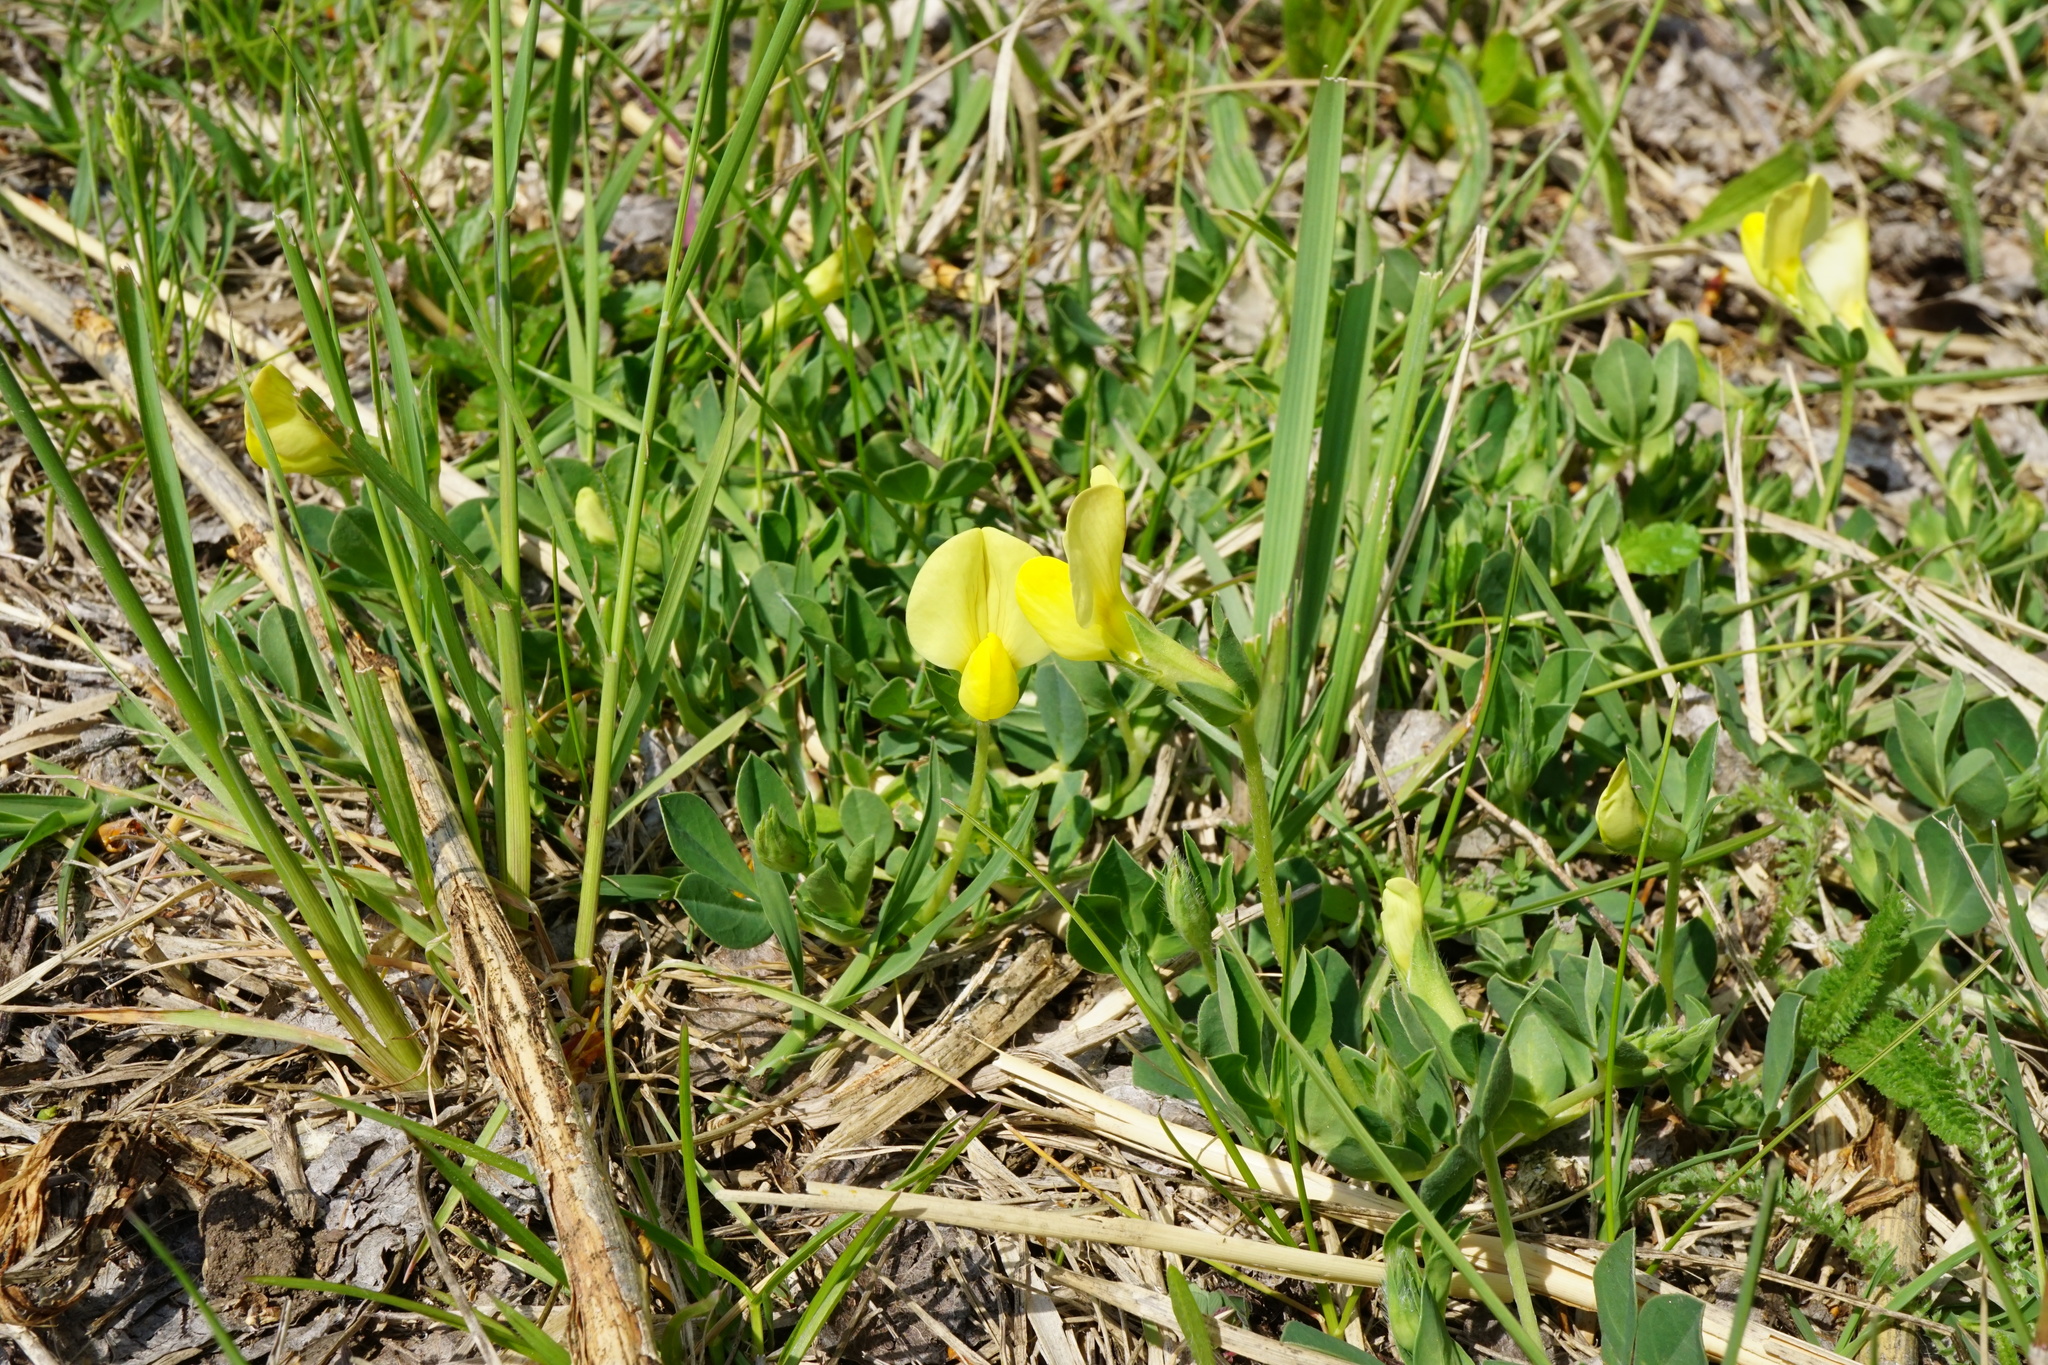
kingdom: Plantae
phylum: Tracheophyta
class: Magnoliopsida
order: Fabales
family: Fabaceae
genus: Lotus
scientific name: Lotus maritimus
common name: Dragon's-teeth
